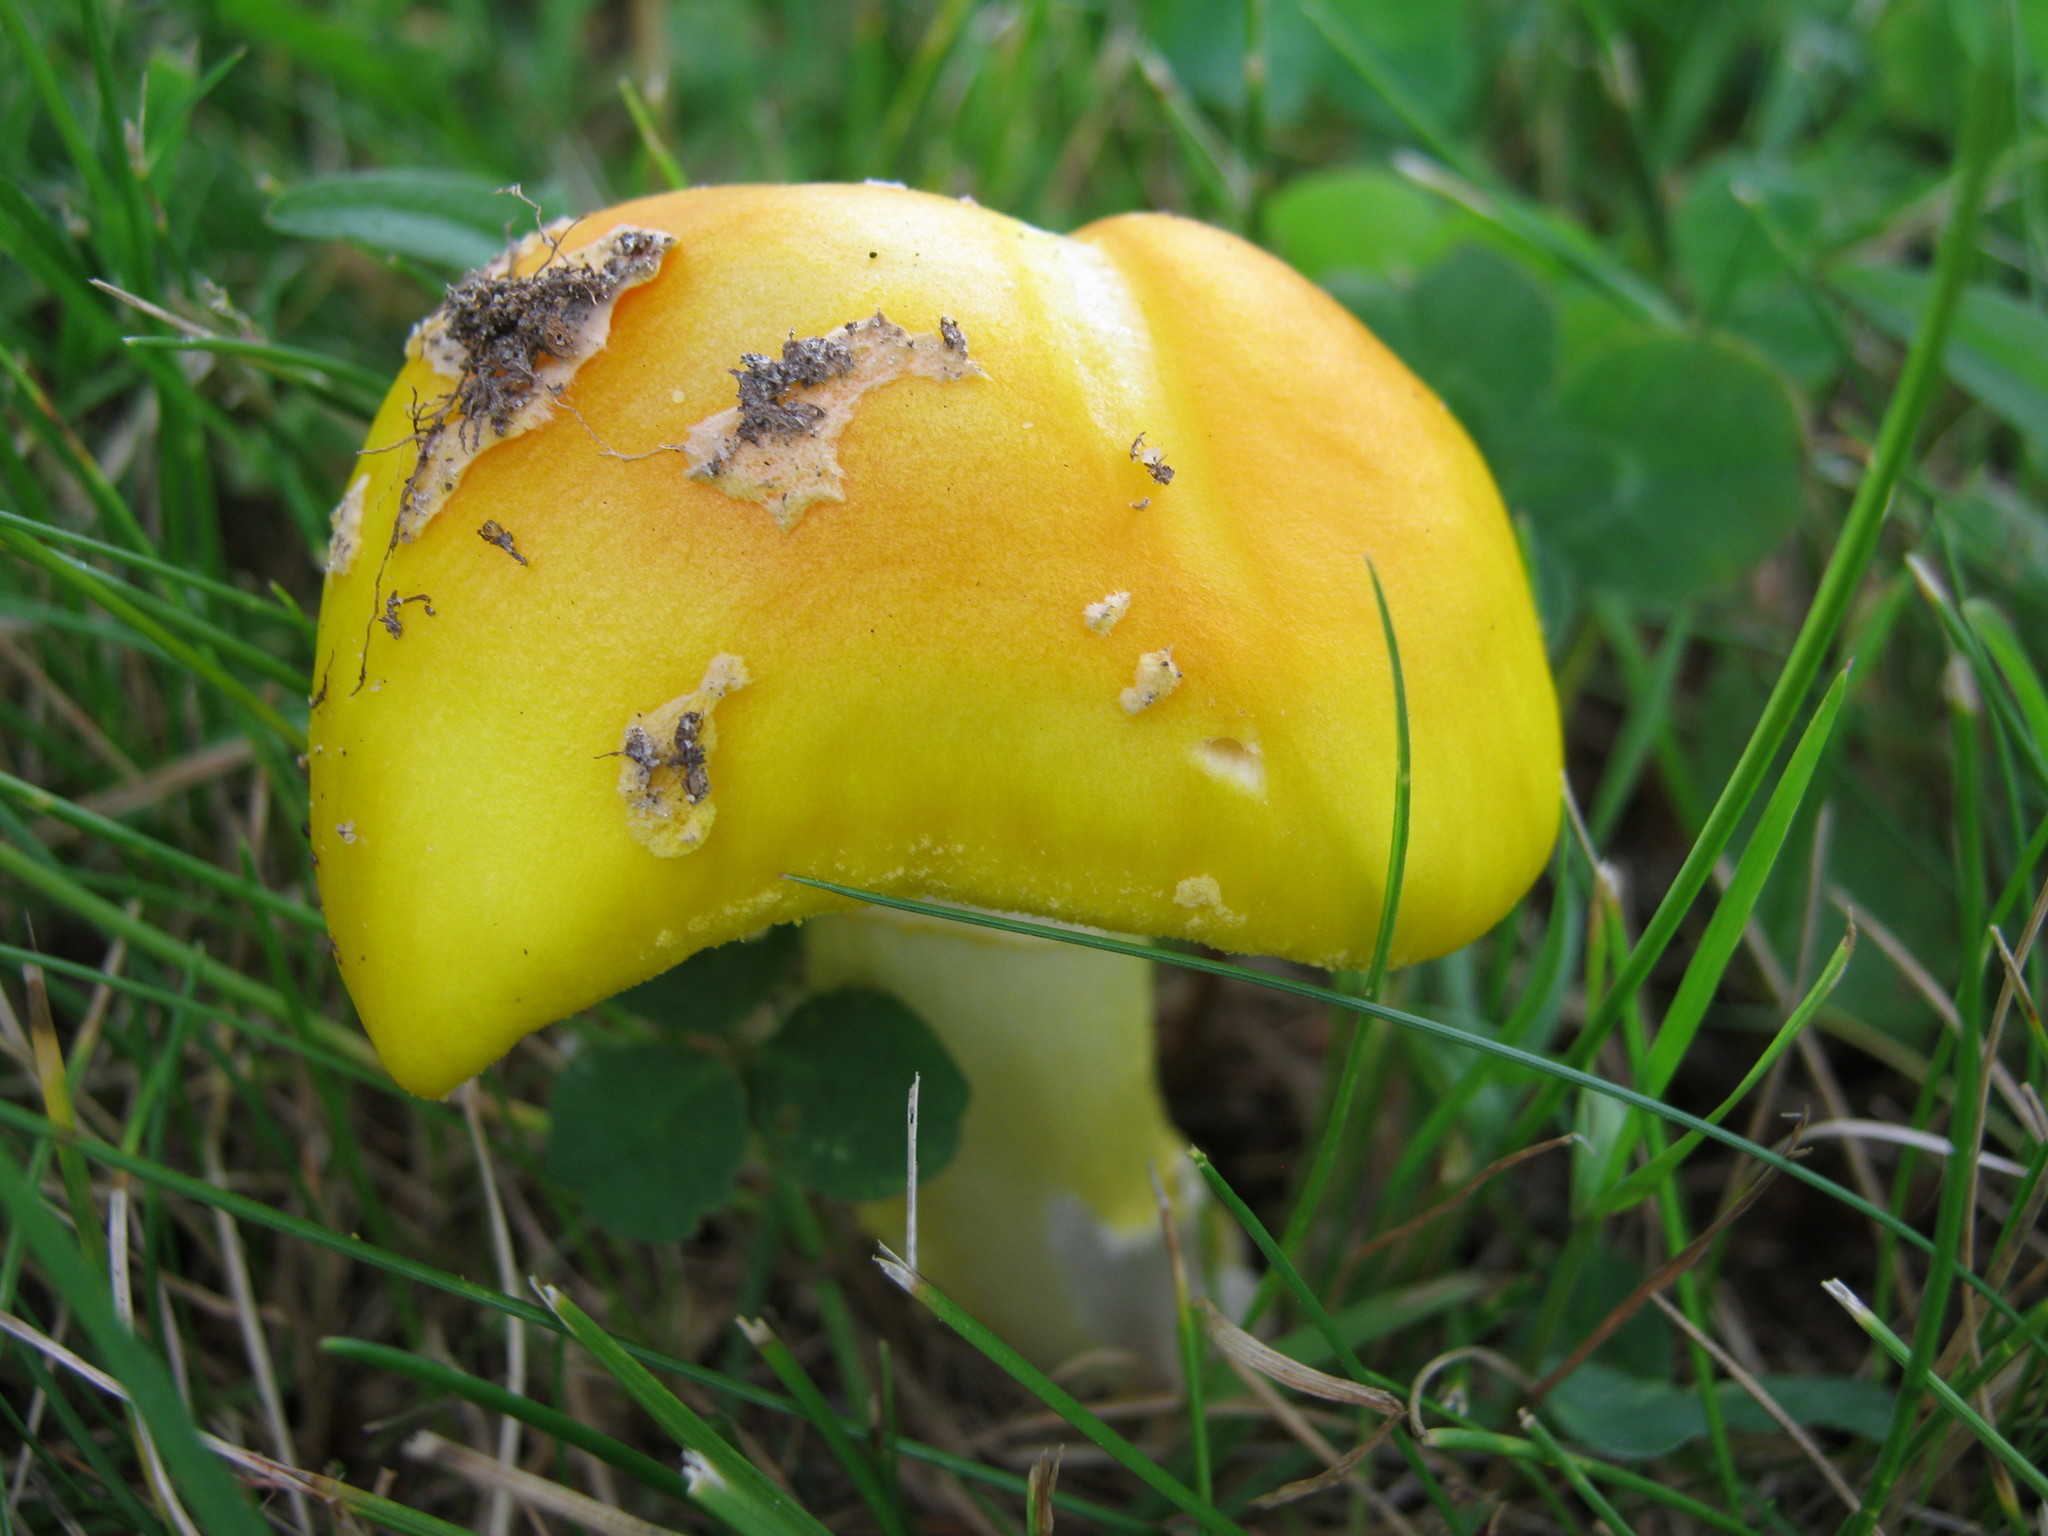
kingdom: Fungi
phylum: Basidiomycota
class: Agaricomycetes
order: Agaricales
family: Amanitaceae
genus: Amanita
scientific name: Amanita flavoconia
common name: Yellow patches
